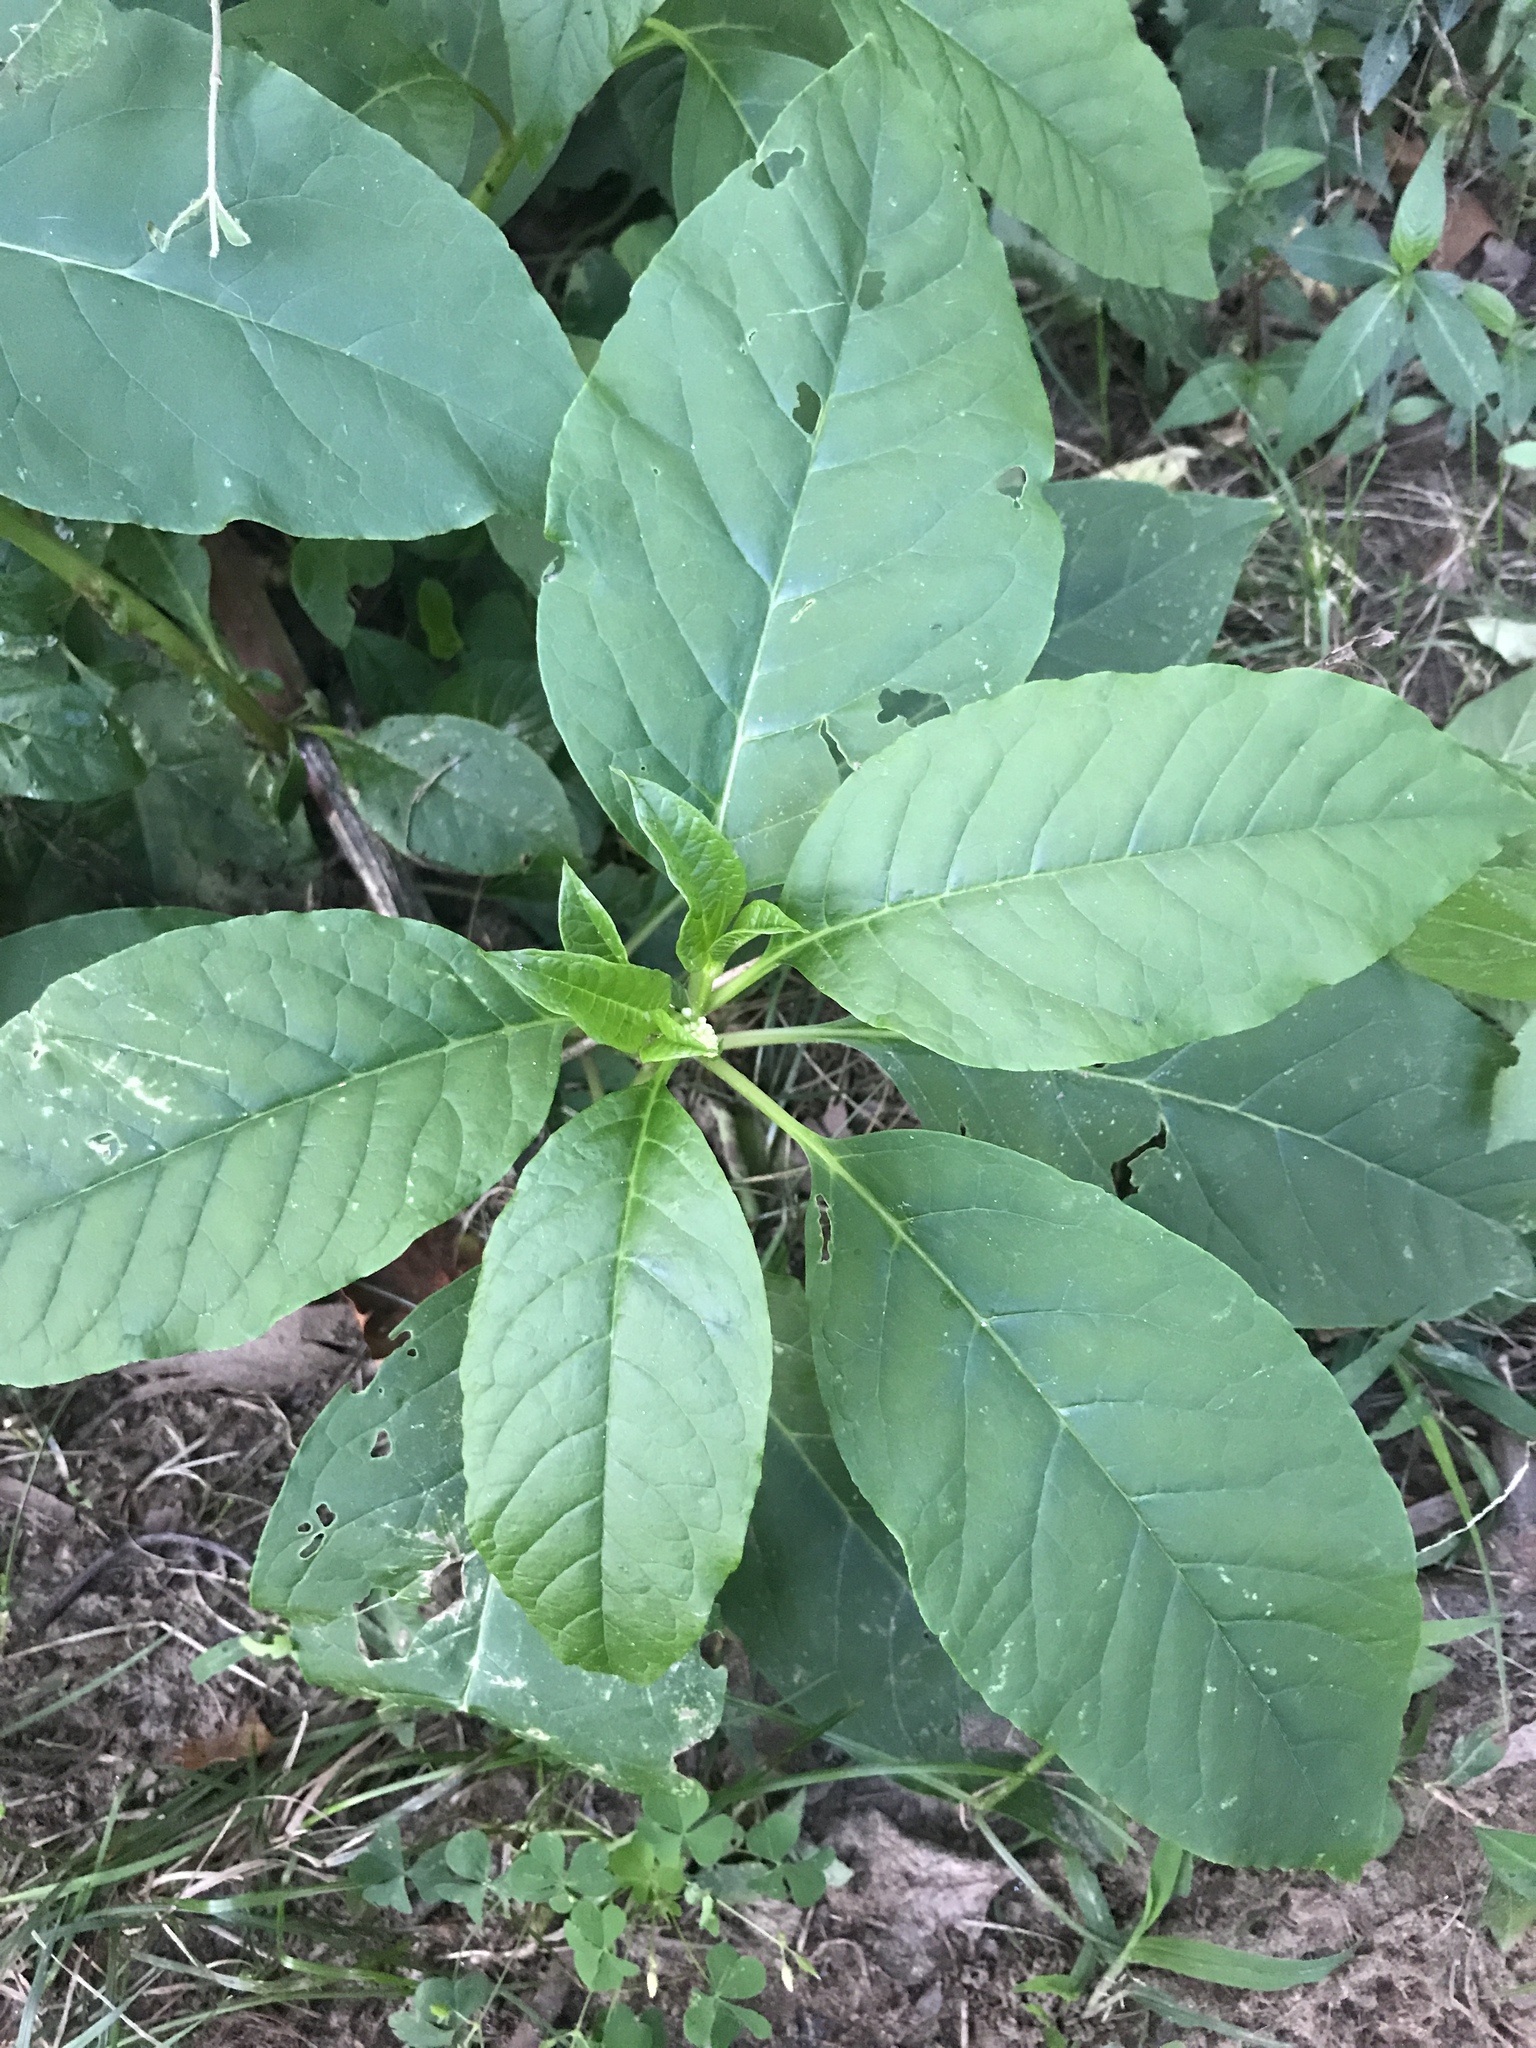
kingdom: Plantae
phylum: Tracheophyta
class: Magnoliopsida
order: Caryophyllales
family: Phytolaccaceae
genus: Phytolacca
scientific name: Phytolacca americana
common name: American pokeweed
